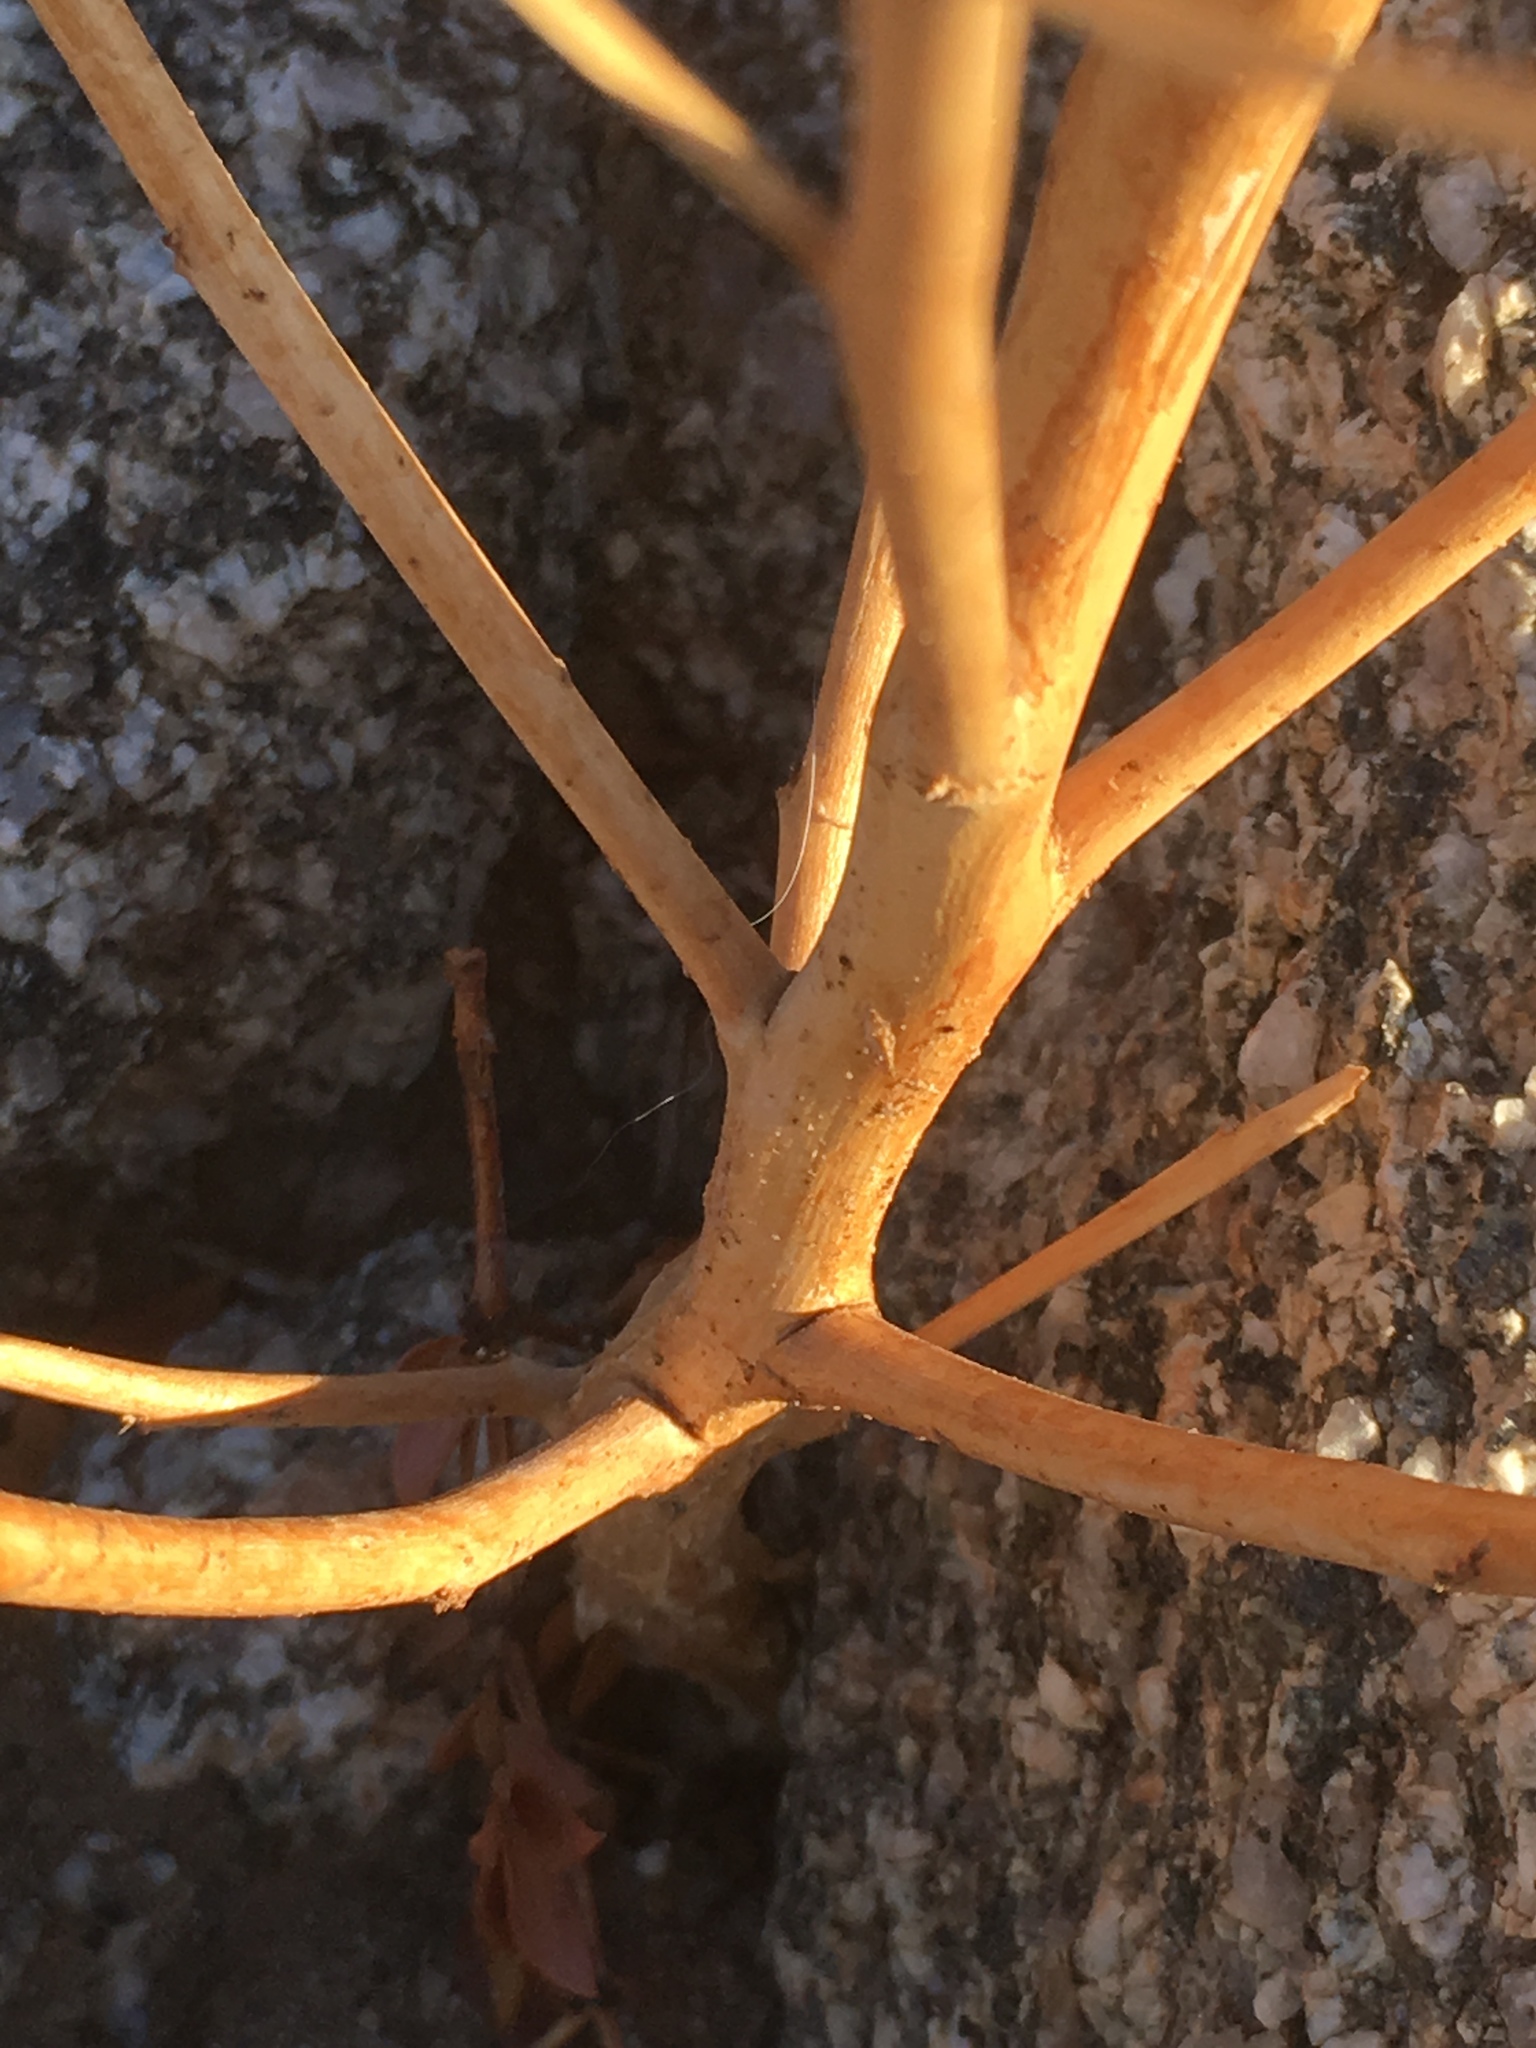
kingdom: Plantae
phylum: Tracheophyta
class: Magnoliopsida
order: Myrtales
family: Onagraceae
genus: Eulobus
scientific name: Eulobus californicus
